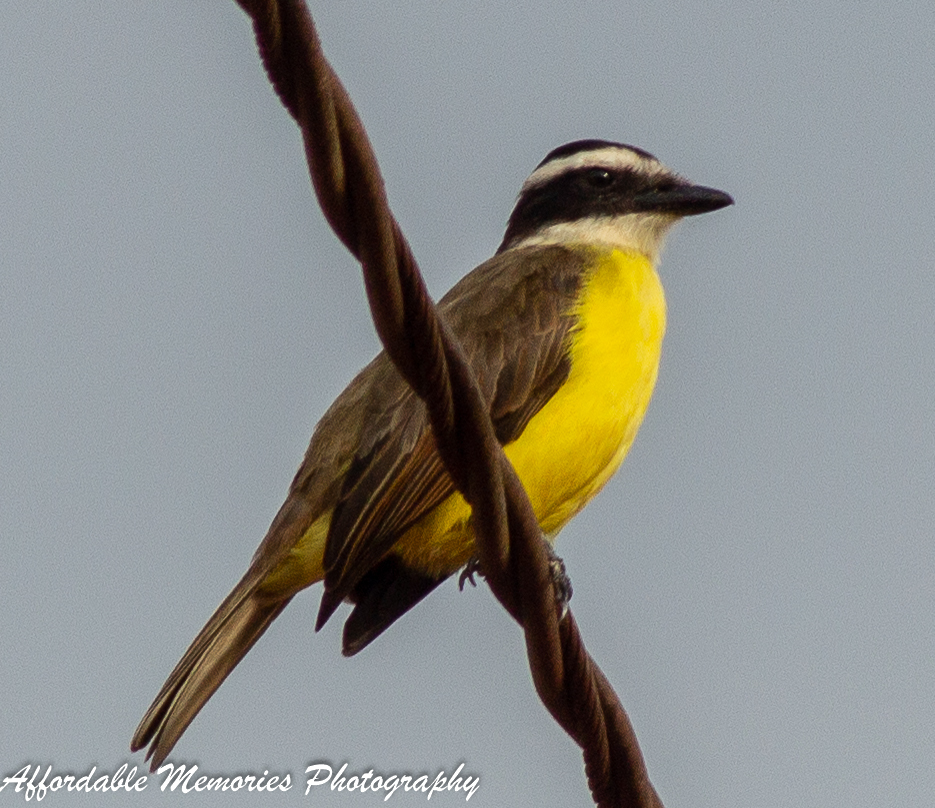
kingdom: Animalia
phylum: Chordata
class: Aves
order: Passeriformes
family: Tyrannidae
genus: Pitangus
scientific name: Pitangus sulphuratus
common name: Great kiskadee
